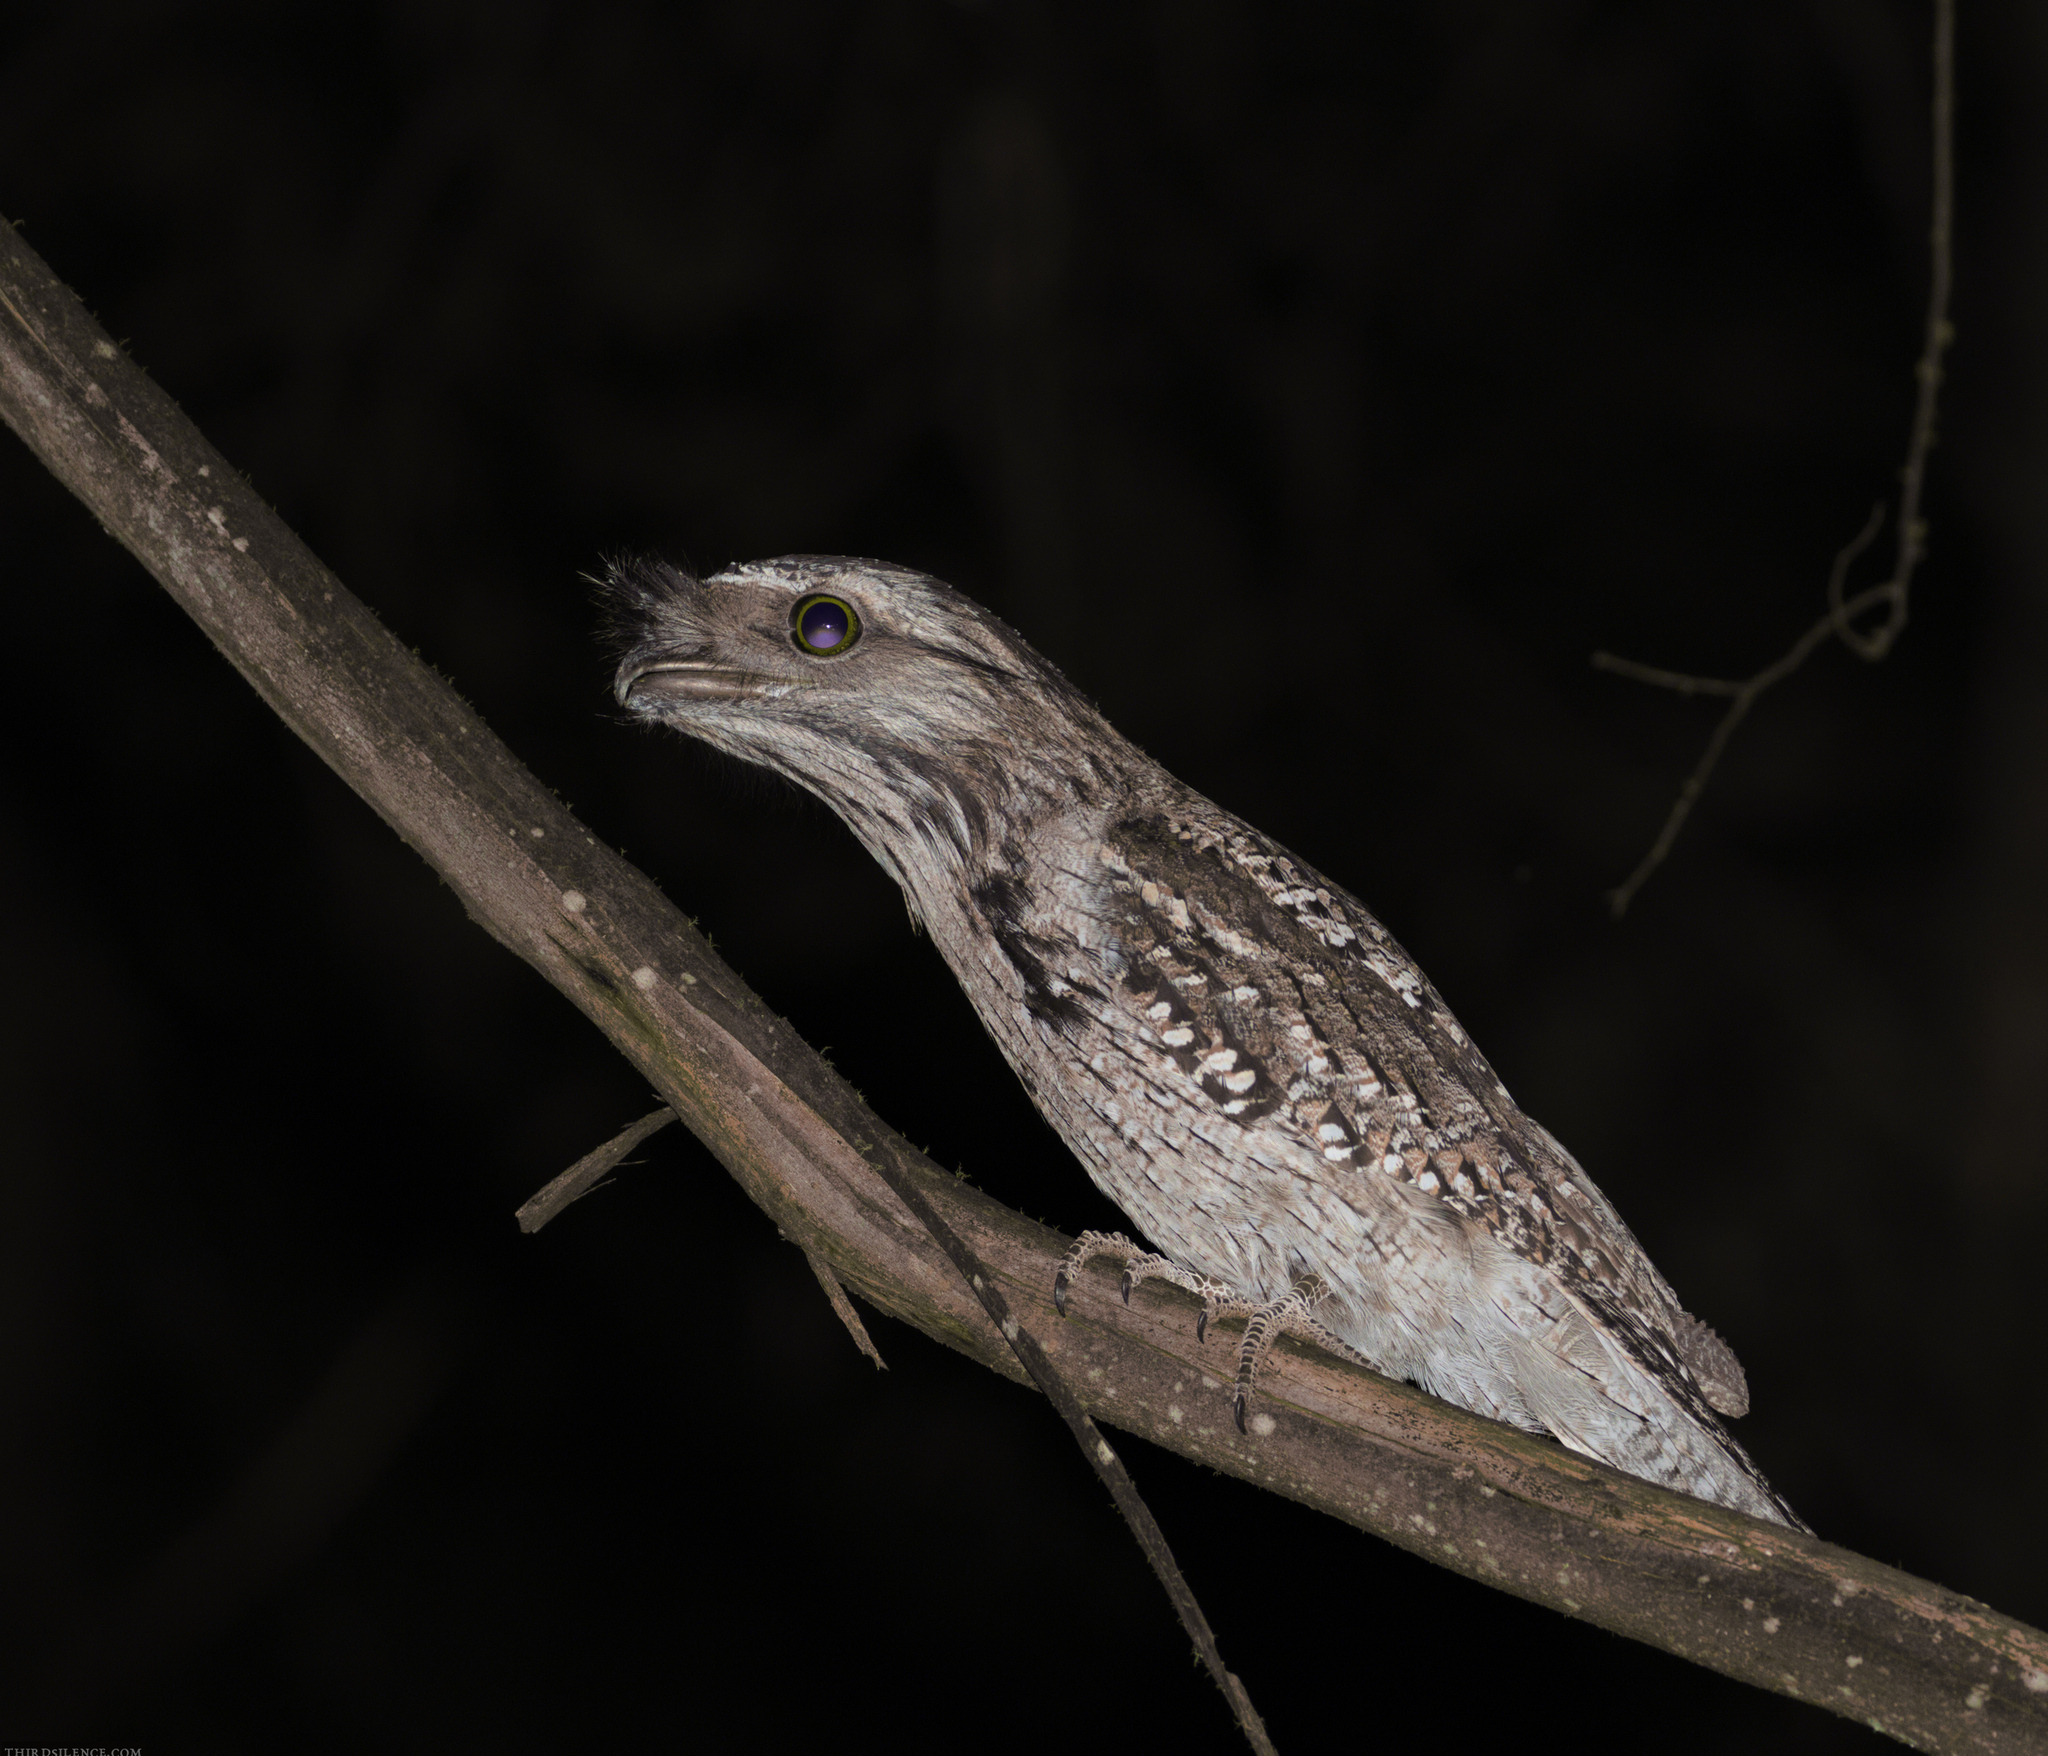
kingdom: Animalia
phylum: Chordata
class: Aves
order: Caprimulgiformes
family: Podargidae
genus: Podargus
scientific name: Podargus strigoides
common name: Tawny frogmouth
